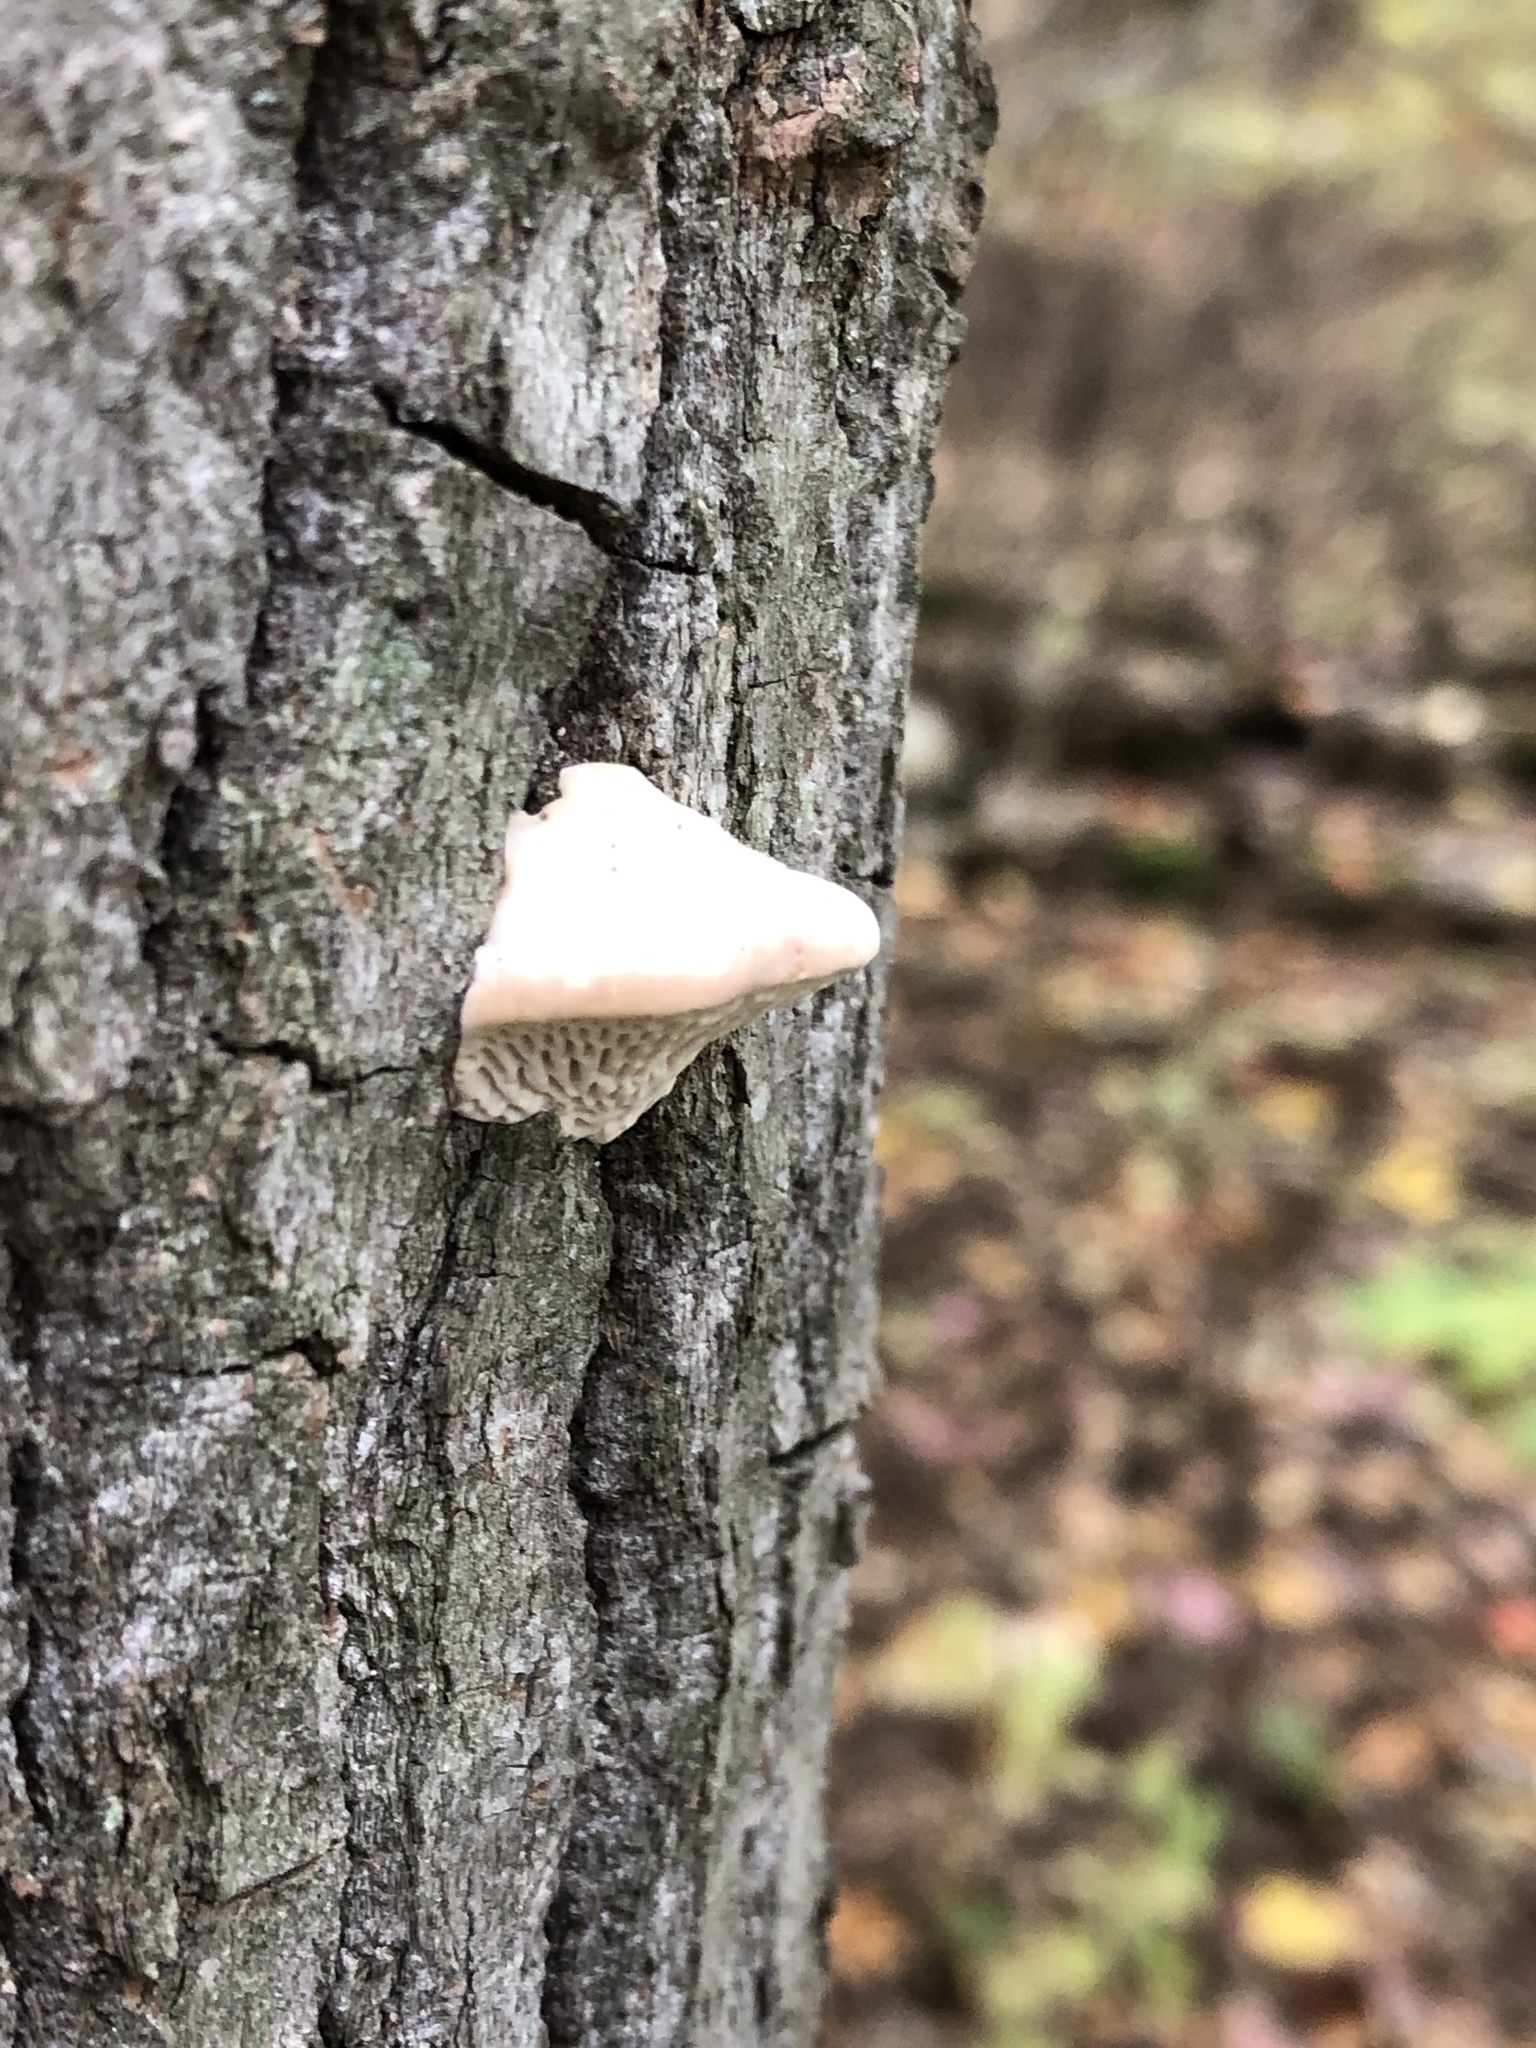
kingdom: Fungi
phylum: Basidiomycota
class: Agaricomycetes
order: Polyporales
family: Fomitopsidaceae
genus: Fomitopsis
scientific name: Fomitopsis
